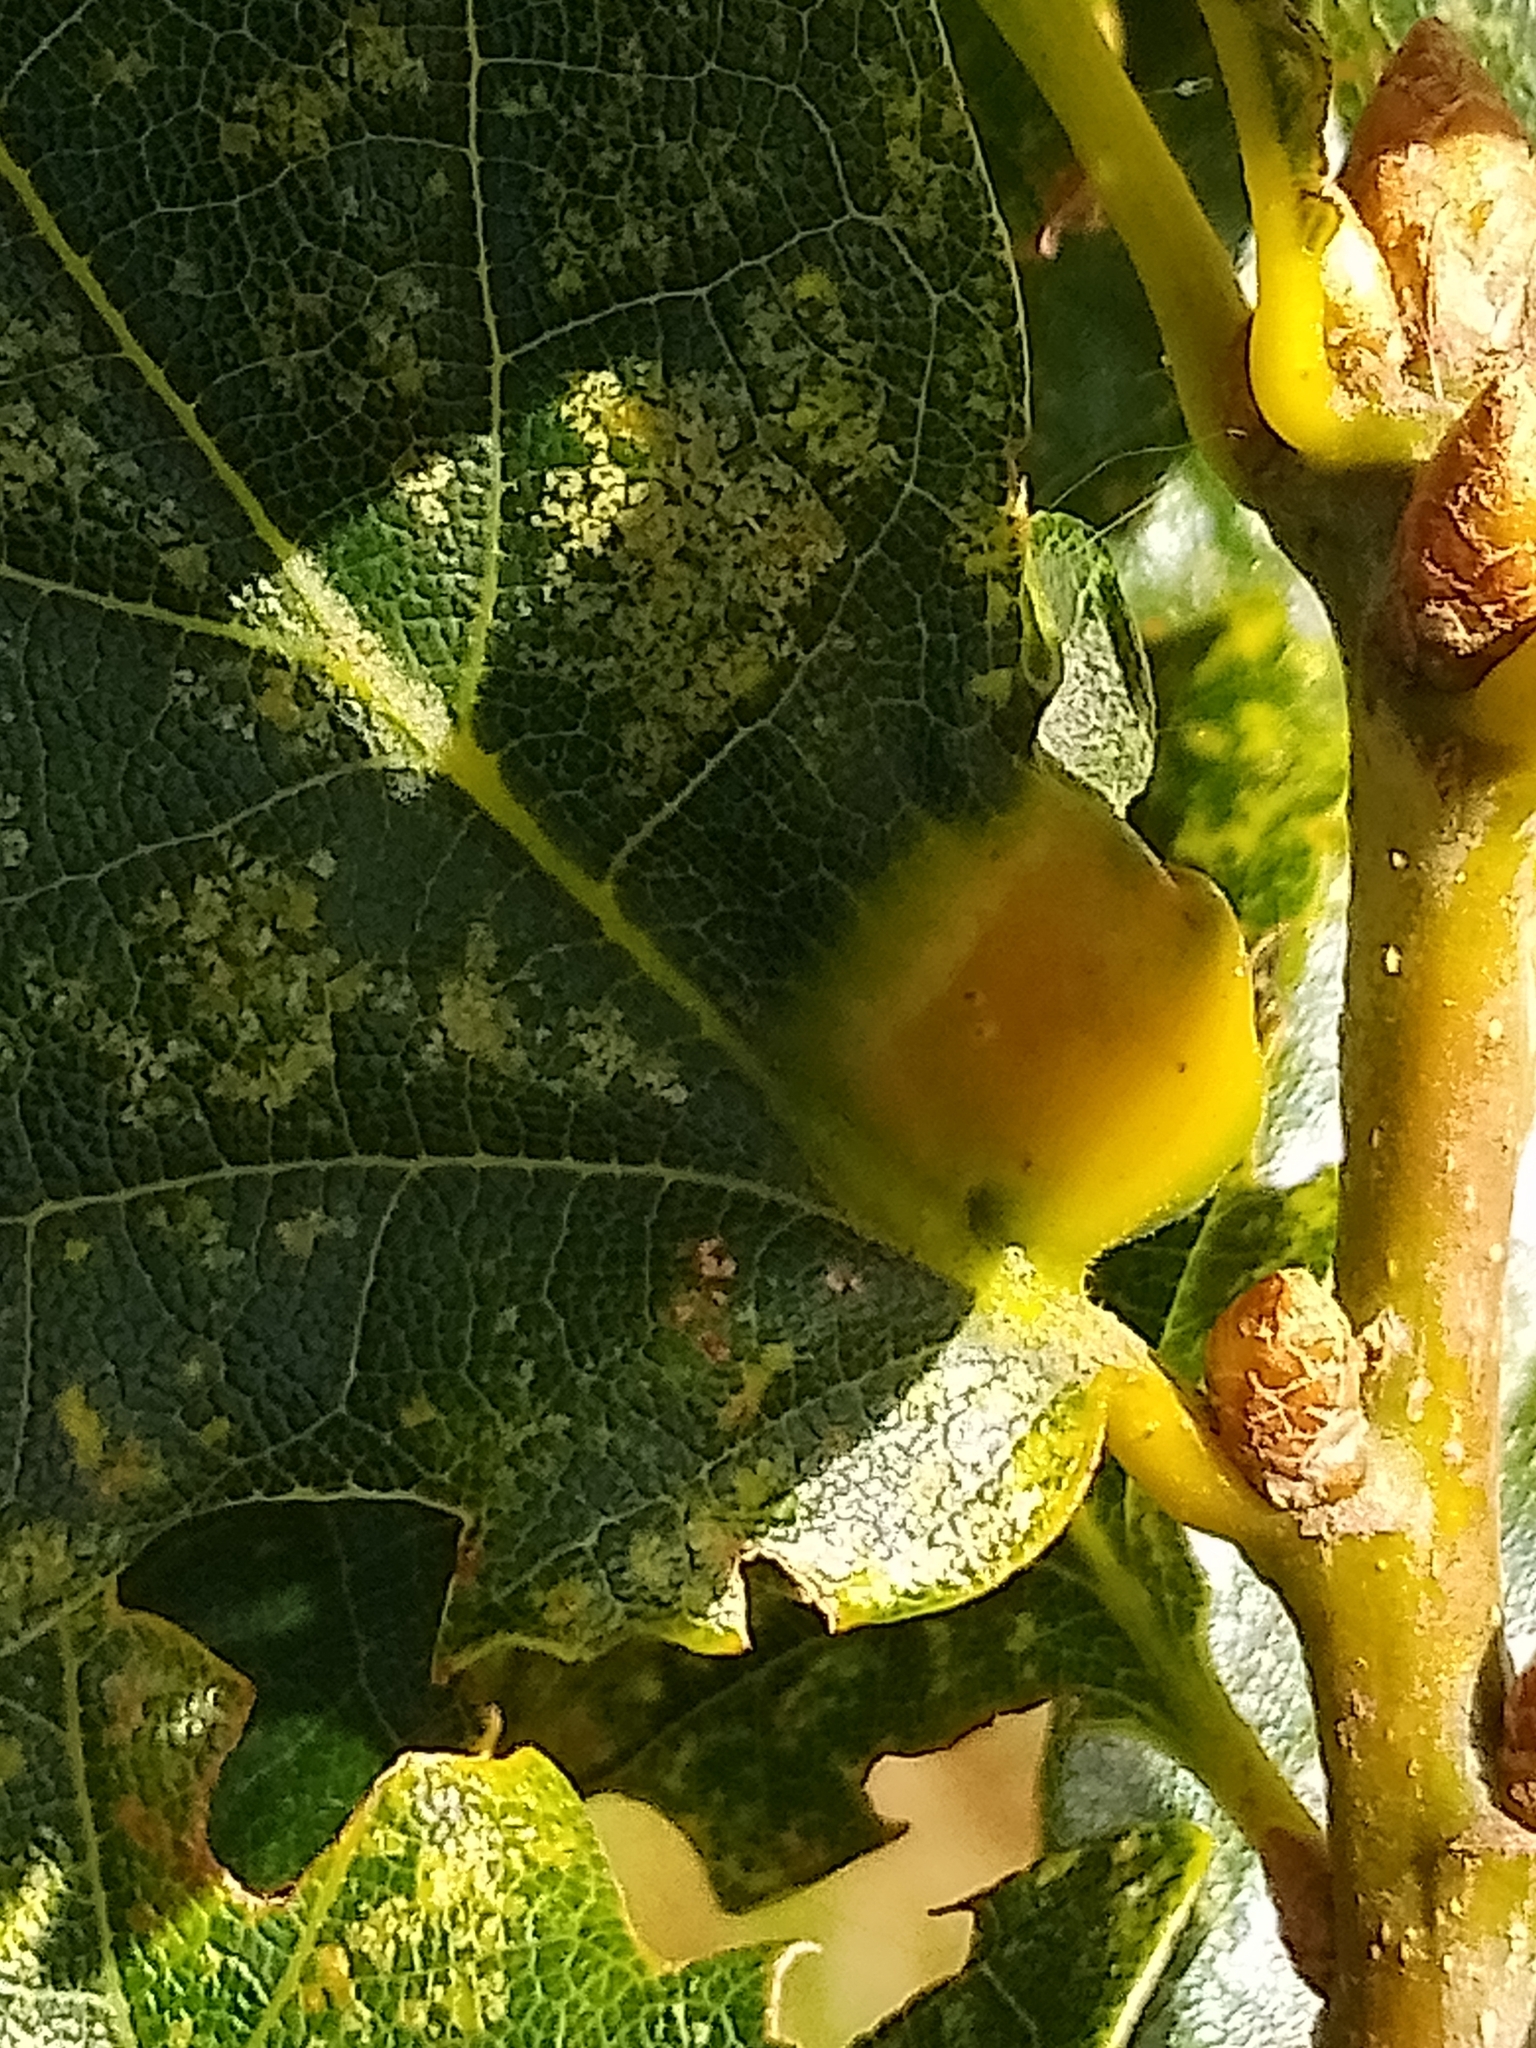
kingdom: Animalia
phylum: Arthropoda
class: Insecta
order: Hymenoptera
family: Cynipidae
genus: Andricus
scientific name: Andricus curvator
